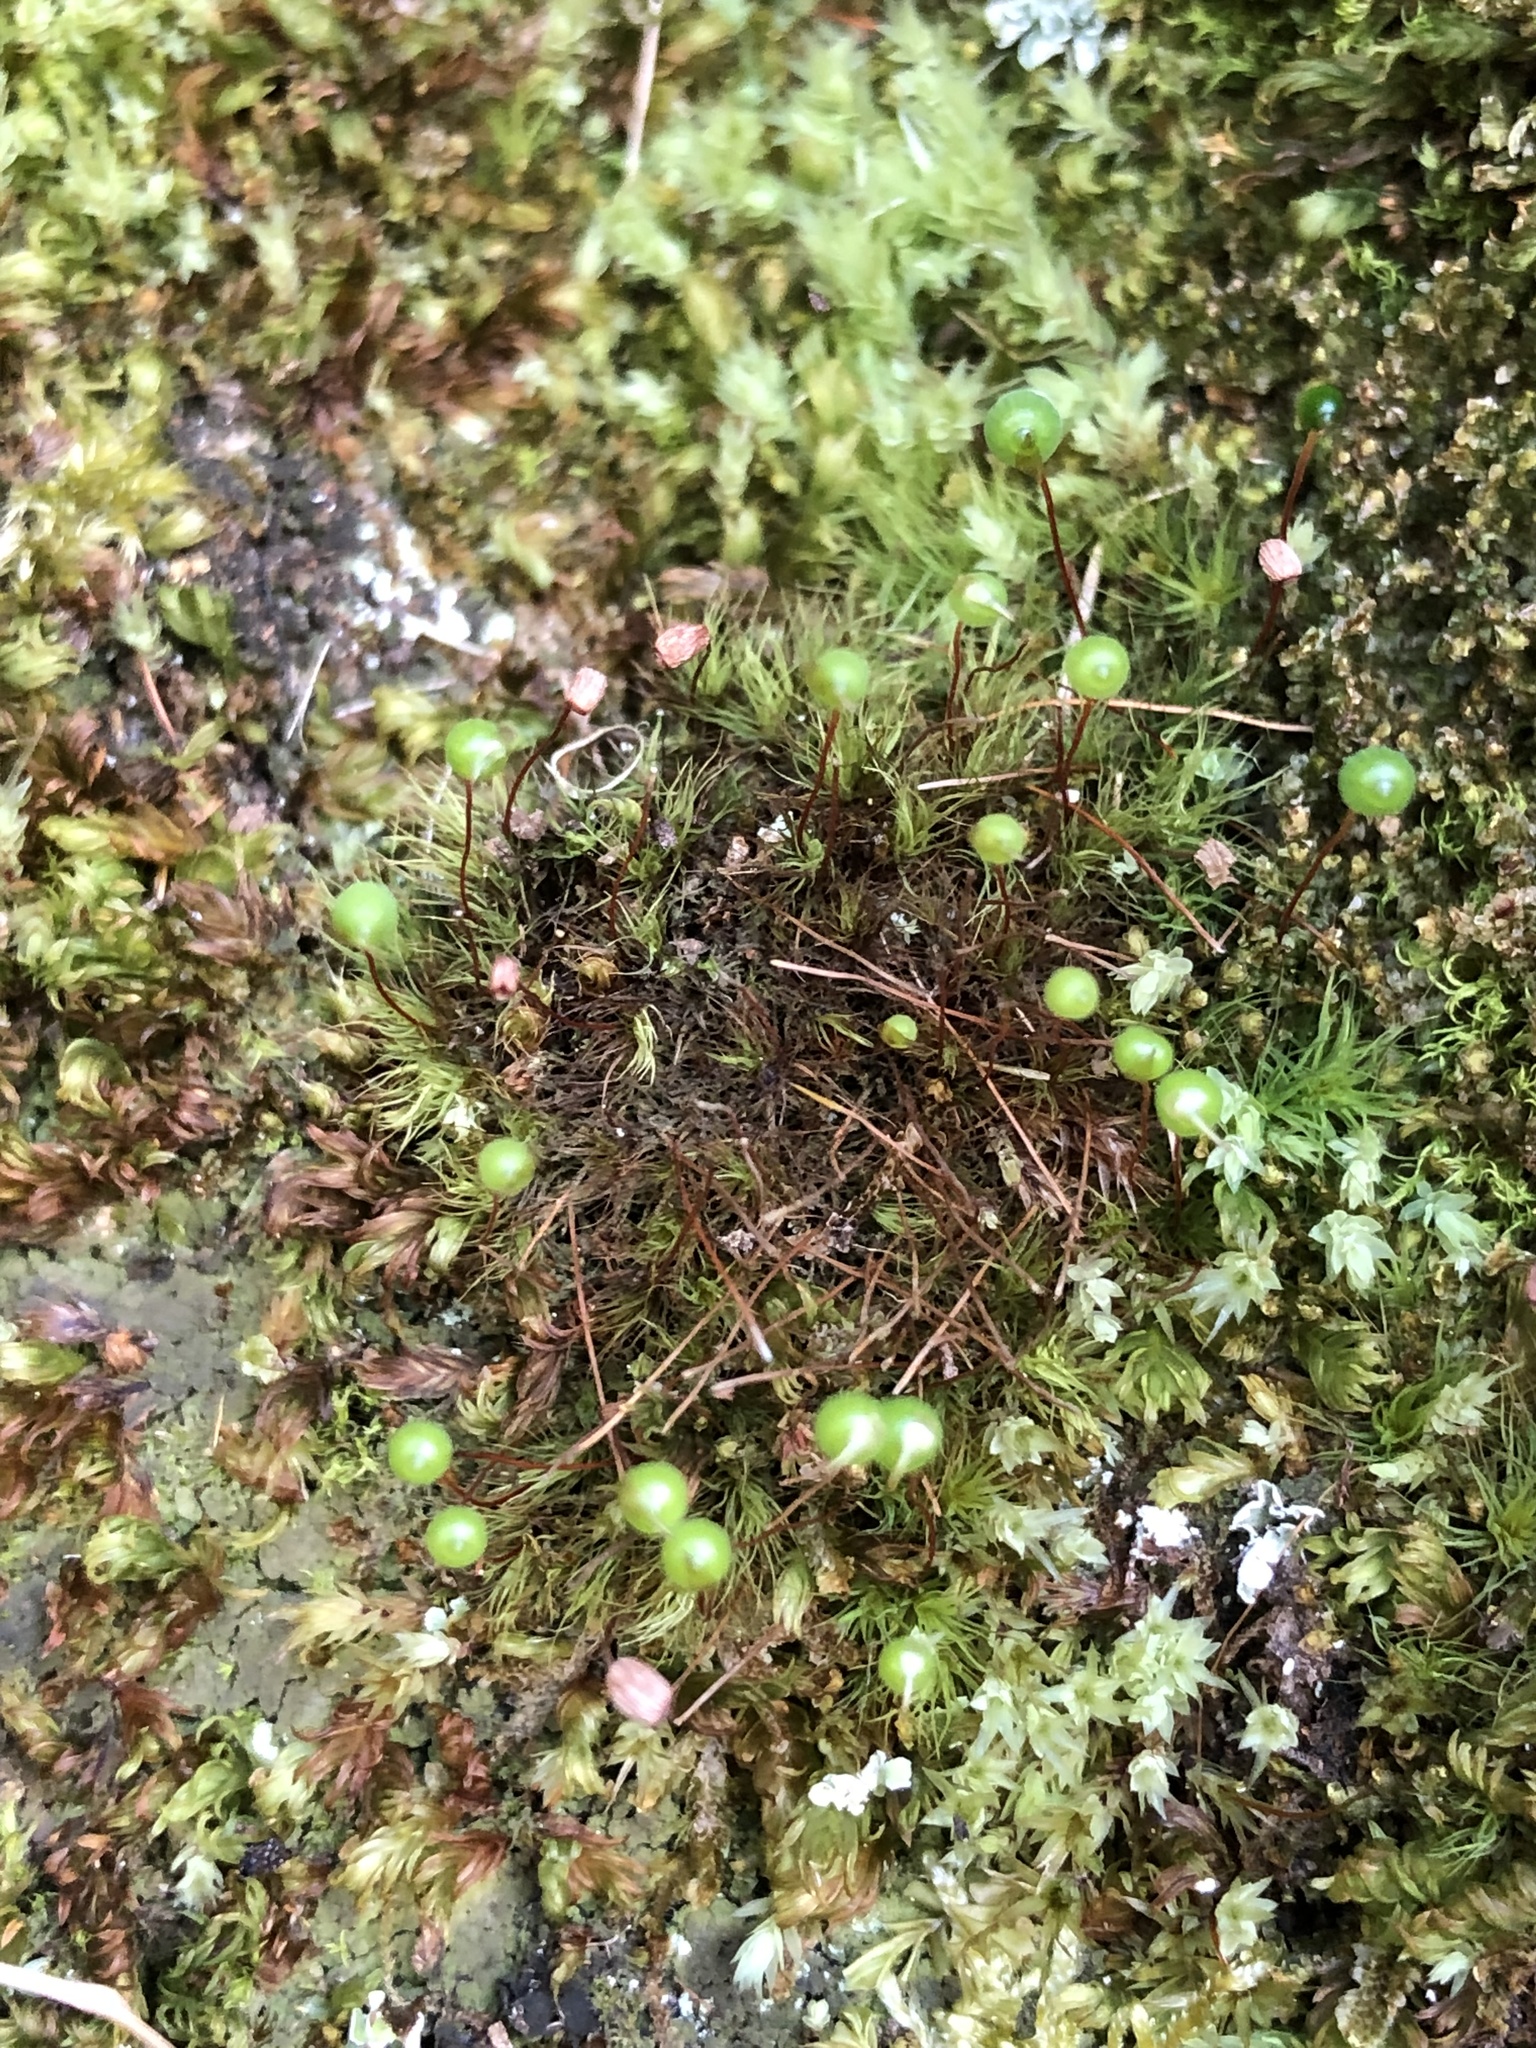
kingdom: Plantae
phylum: Bryophyta
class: Bryopsida
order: Bartramiales
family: Bartramiaceae
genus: Bartramia
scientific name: Bartramia ithyphylla
